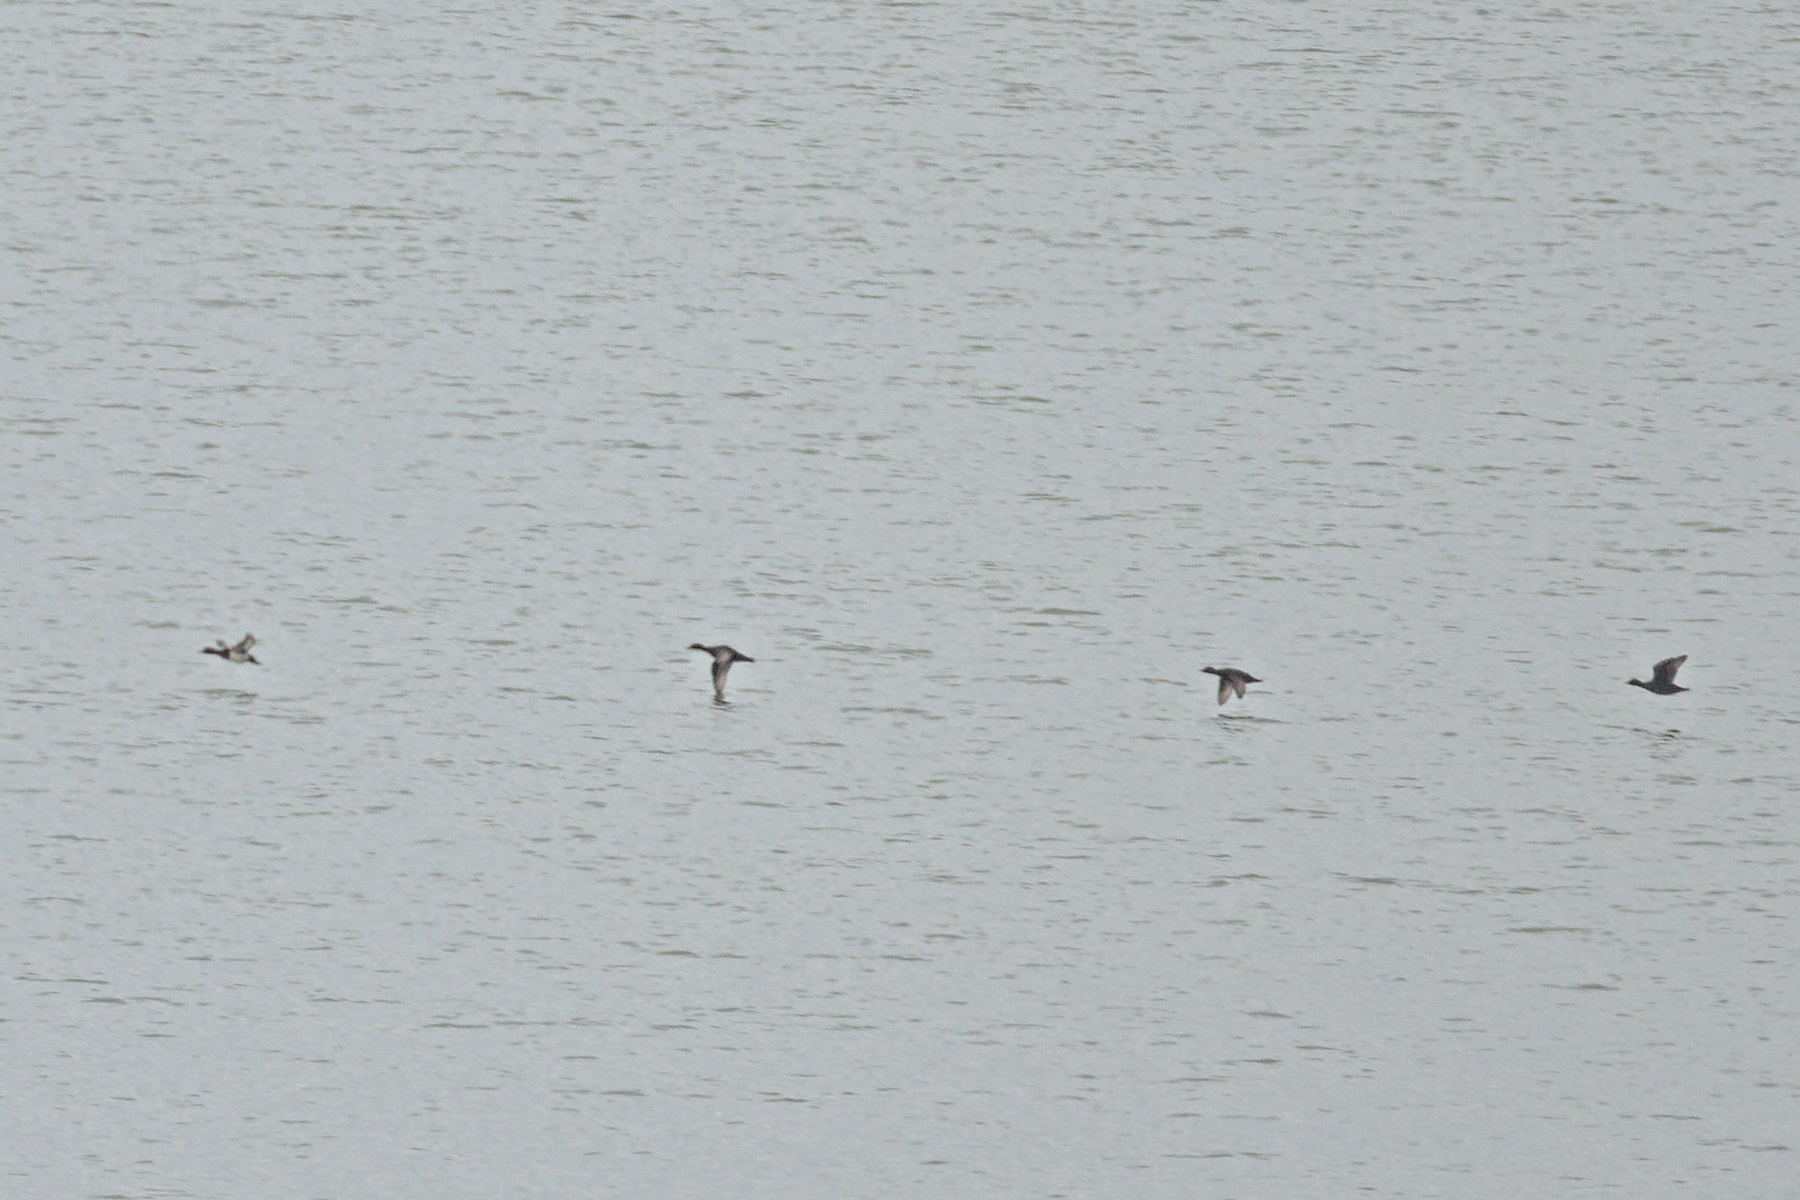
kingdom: Animalia
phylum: Chordata
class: Aves
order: Anseriformes
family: Anatidae
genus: Melanitta
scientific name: Melanitta nigra
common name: Common scoter
